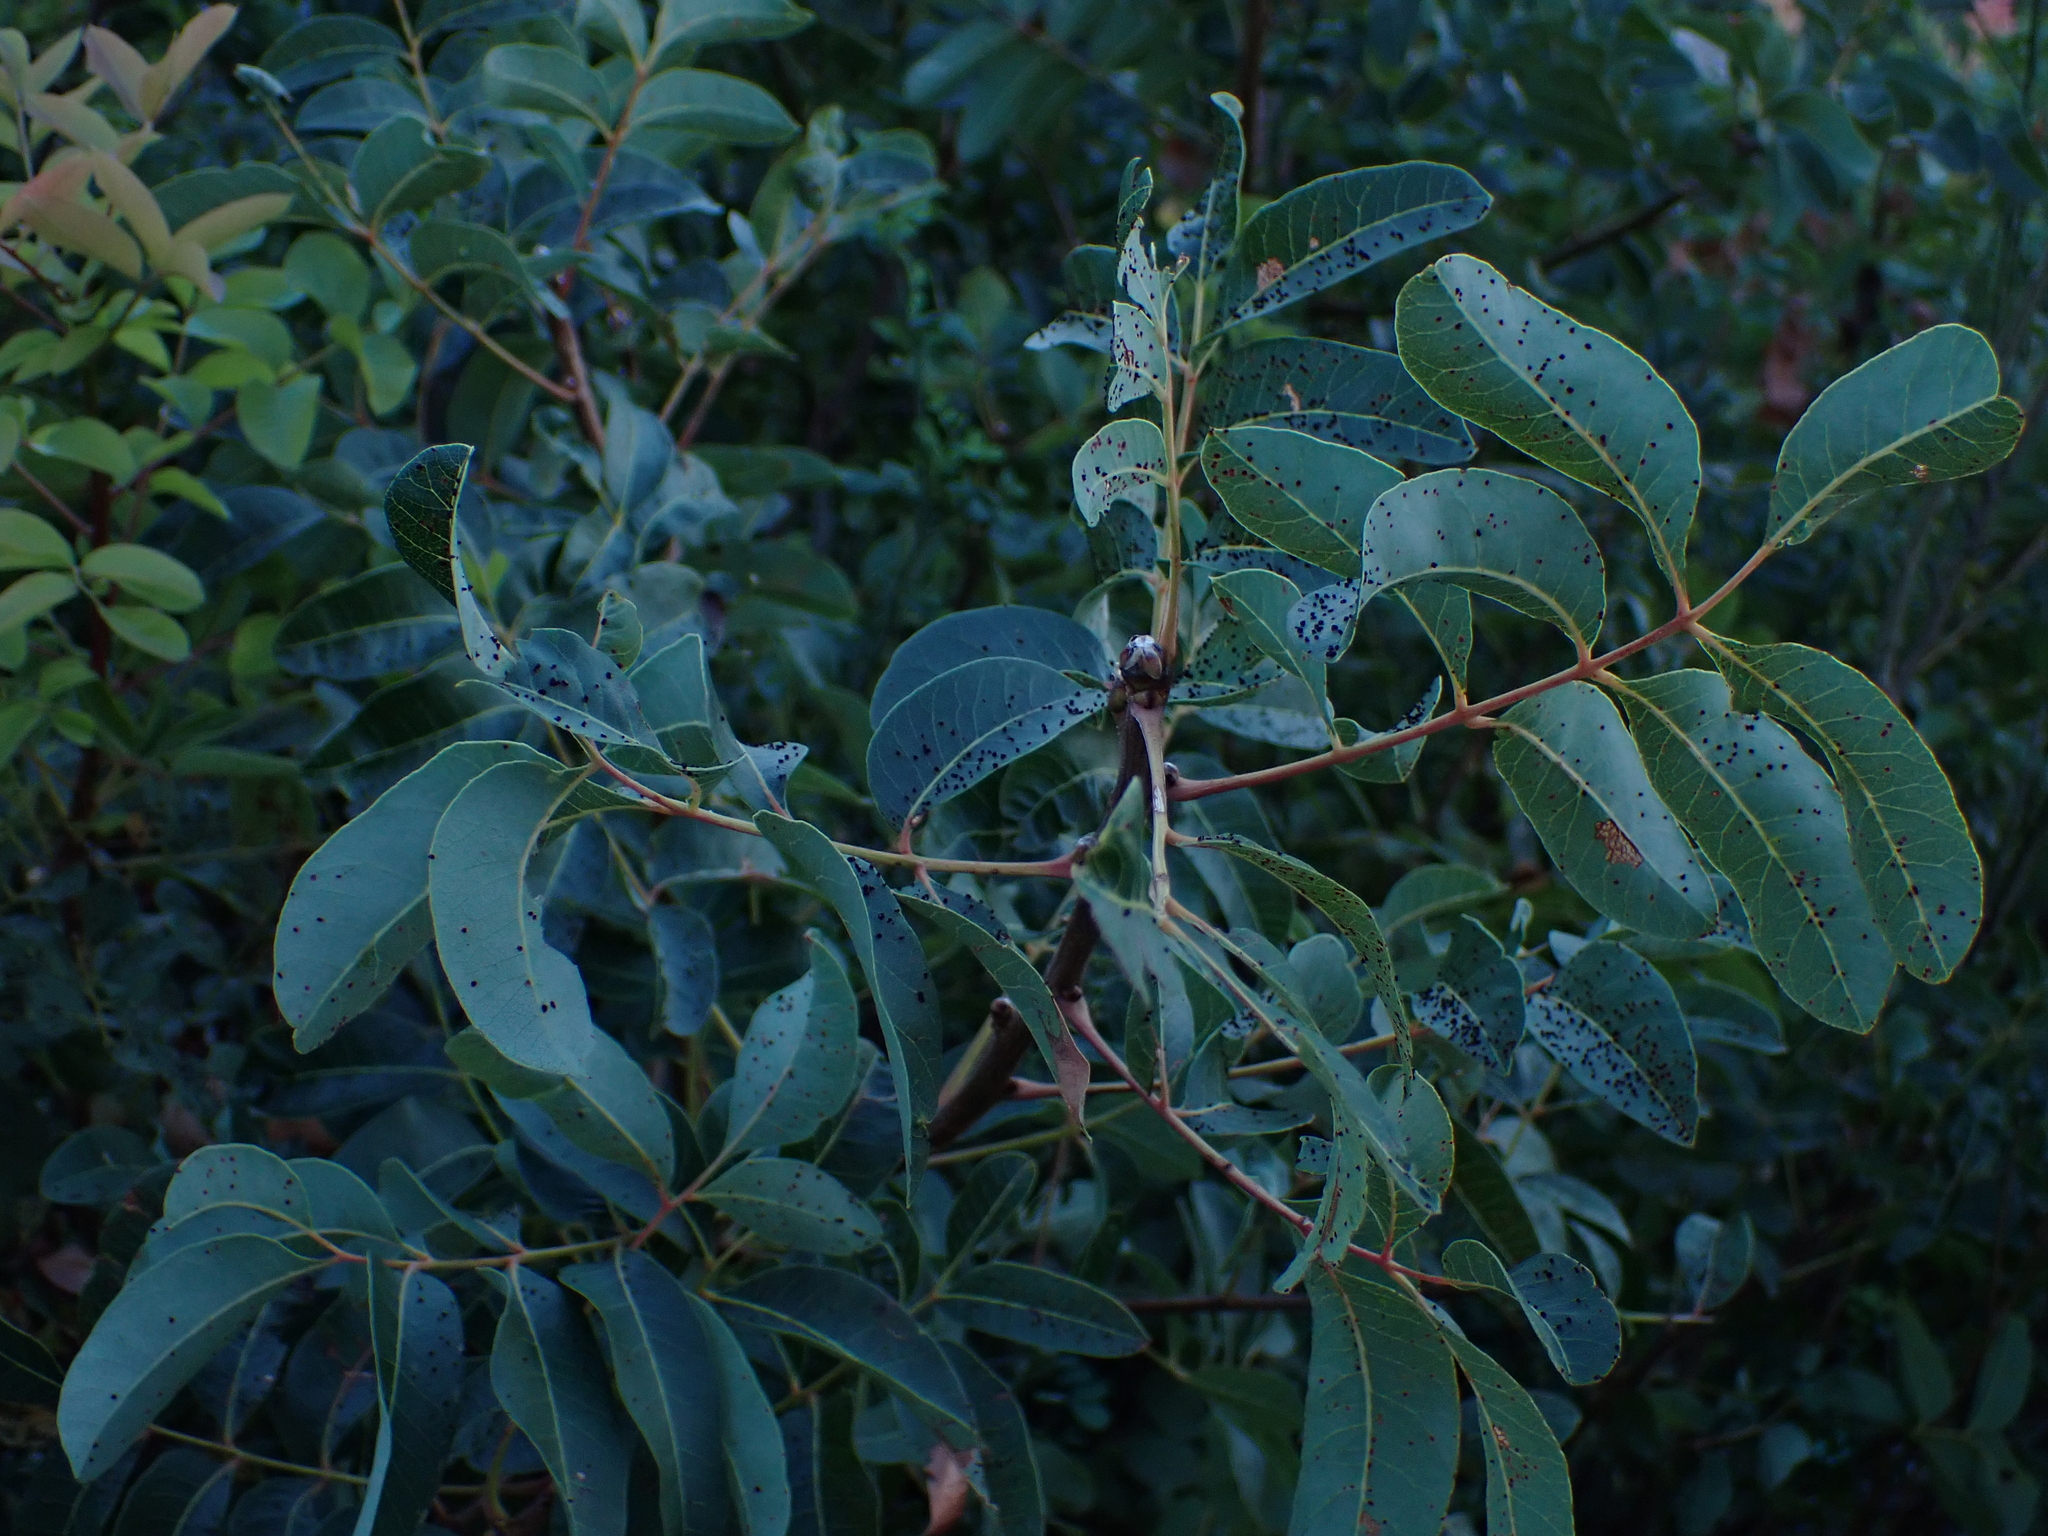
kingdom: Plantae
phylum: Tracheophyta
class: Magnoliopsida
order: Sapindales
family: Anacardiaceae
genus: Pistacia
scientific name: Pistacia terebinthus
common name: Terebinth
